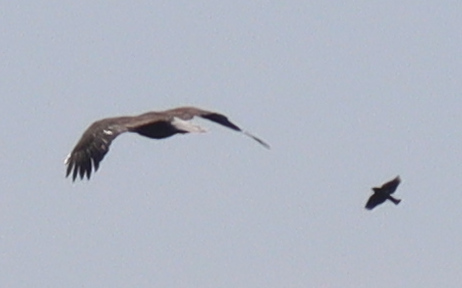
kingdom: Animalia
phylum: Chordata
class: Aves
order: Accipitriformes
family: Accipitridae
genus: Haliaeetus
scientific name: Haliaeetus leucocephalus
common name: Bald eagle
